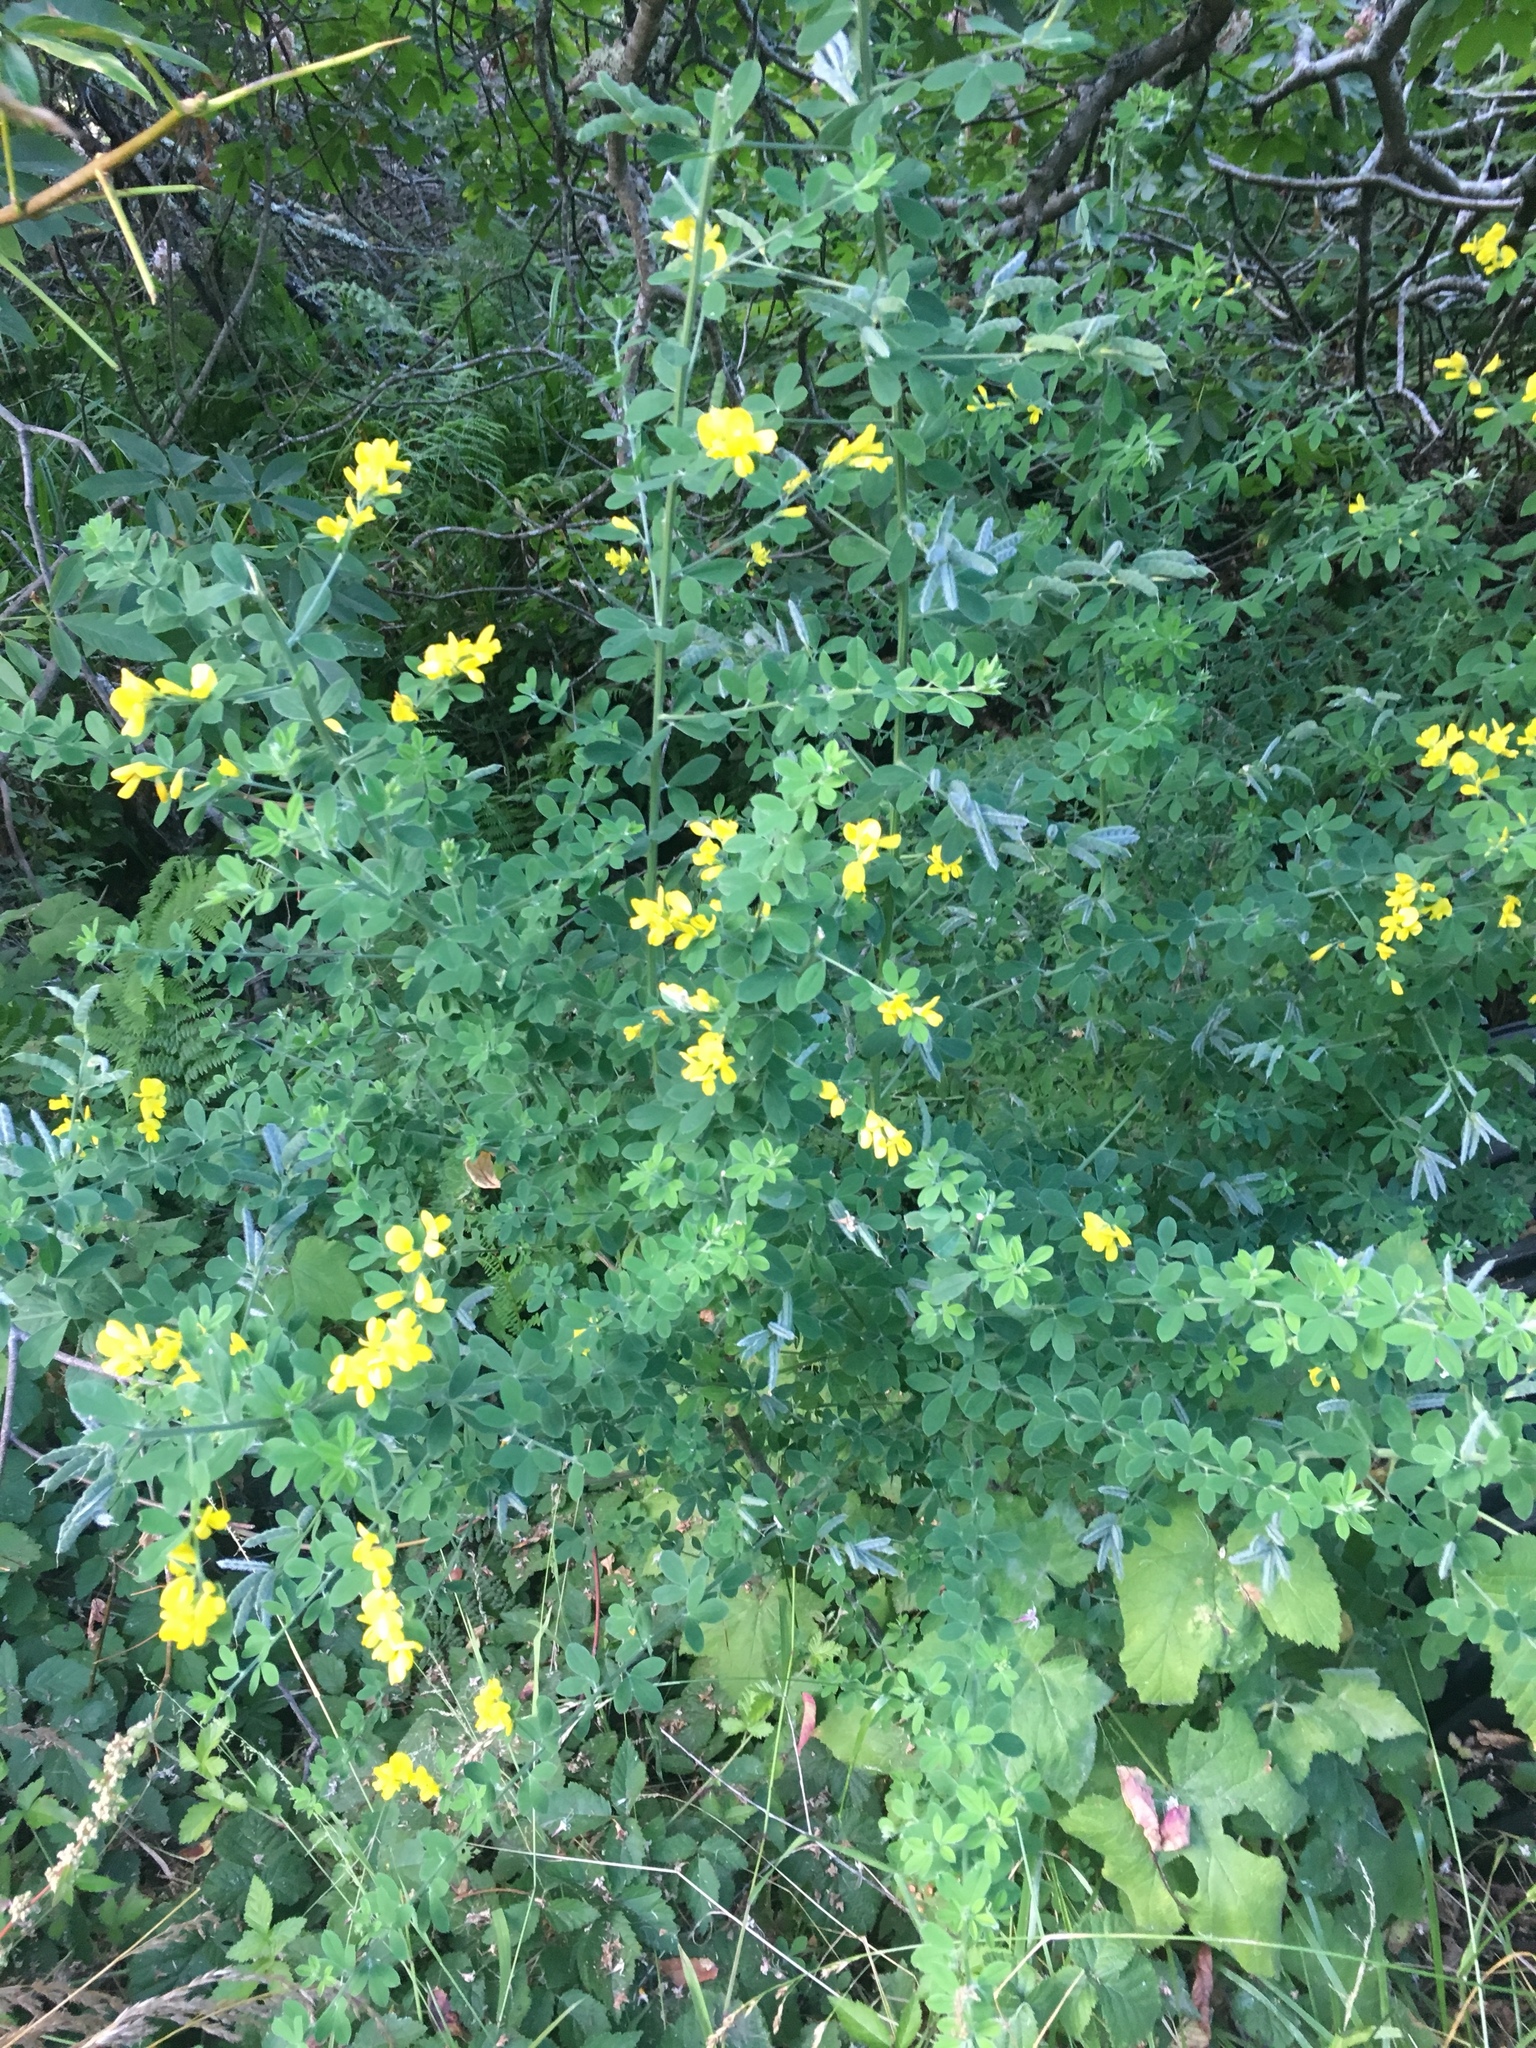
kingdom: Plantae
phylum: Tracheophyta
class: Magnoliopsida
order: Fabales
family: Fabaceae
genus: Genista
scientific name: Genista monspessulana
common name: Montpellier broom
